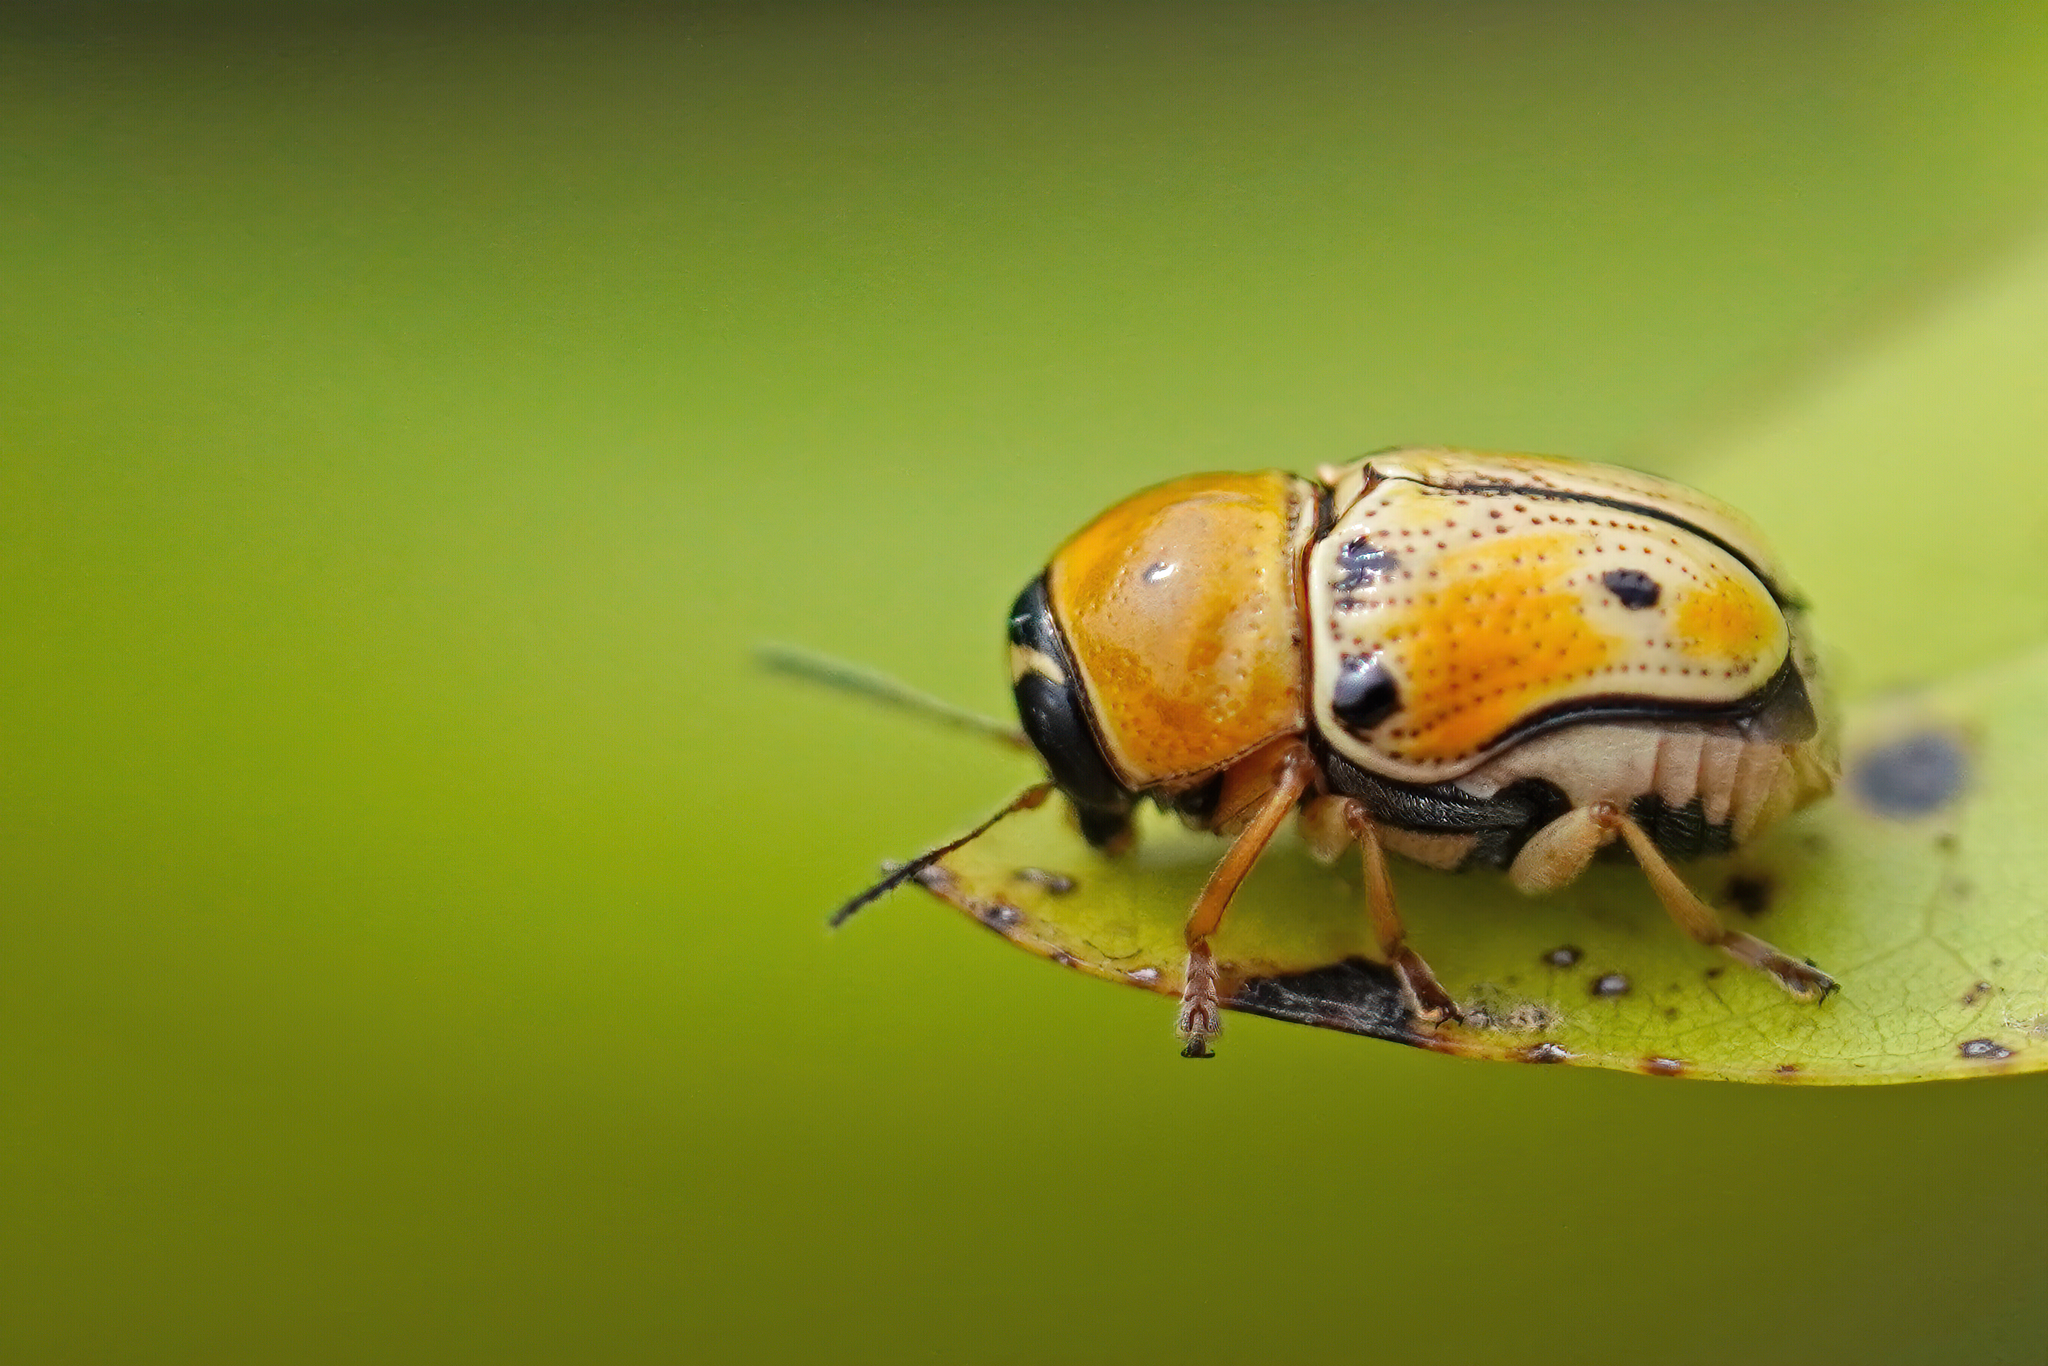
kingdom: Animalia
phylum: Arthropoda
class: Insecta
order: Coleoptera
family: Chrysomelidae
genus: Griburius
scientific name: Griburius larvatus
